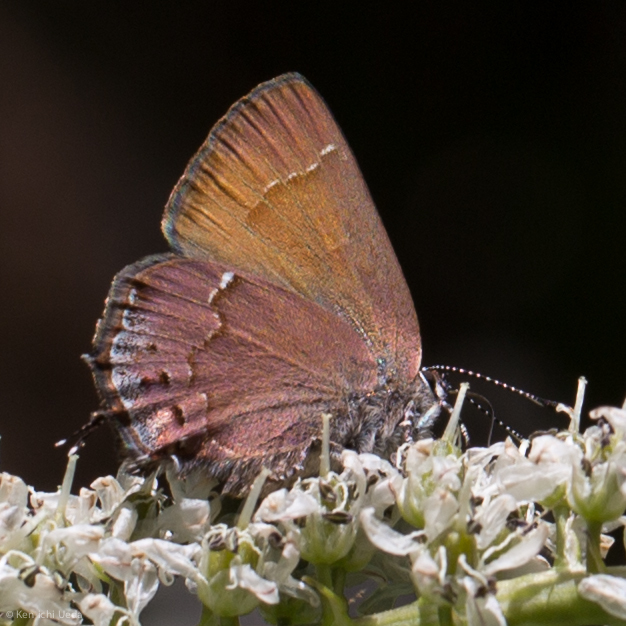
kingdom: Animalia
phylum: Arthropoda
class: Insecta
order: Lepidoptera
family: Lycaenidae
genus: Mitoura
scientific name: Mitoura nelsoni
